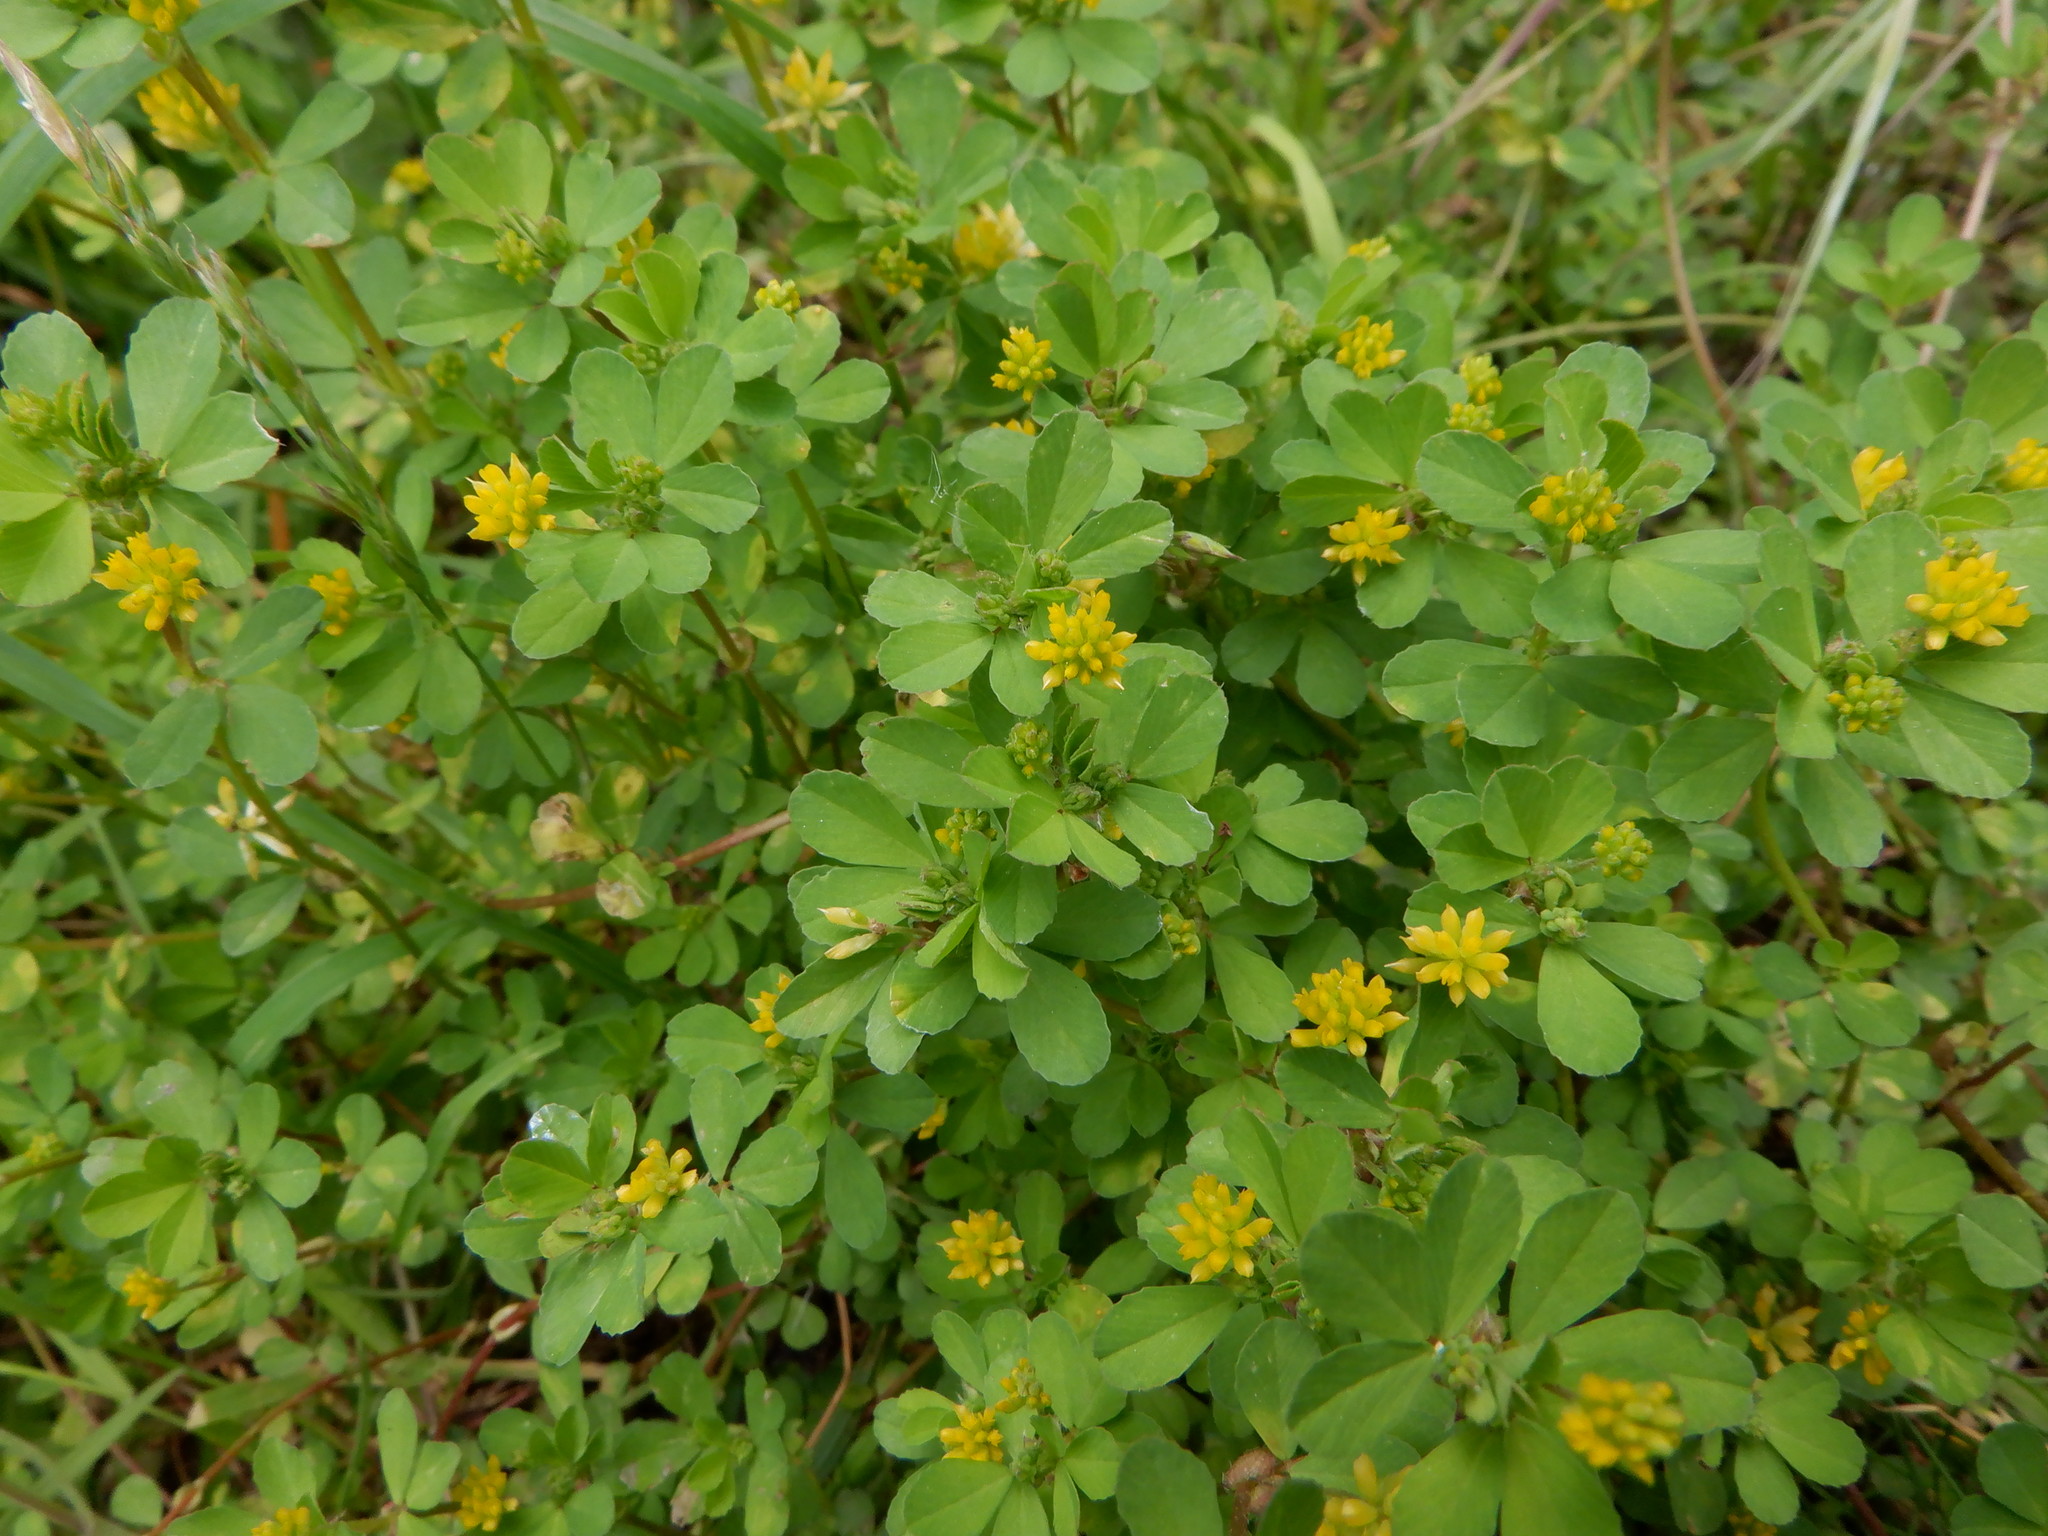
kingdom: Plantae
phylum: Tracheophyta
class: Magnoliopsida
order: Fabales
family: Fabaceae
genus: Trifolium
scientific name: Trifolium dubium
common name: Suckling clover
